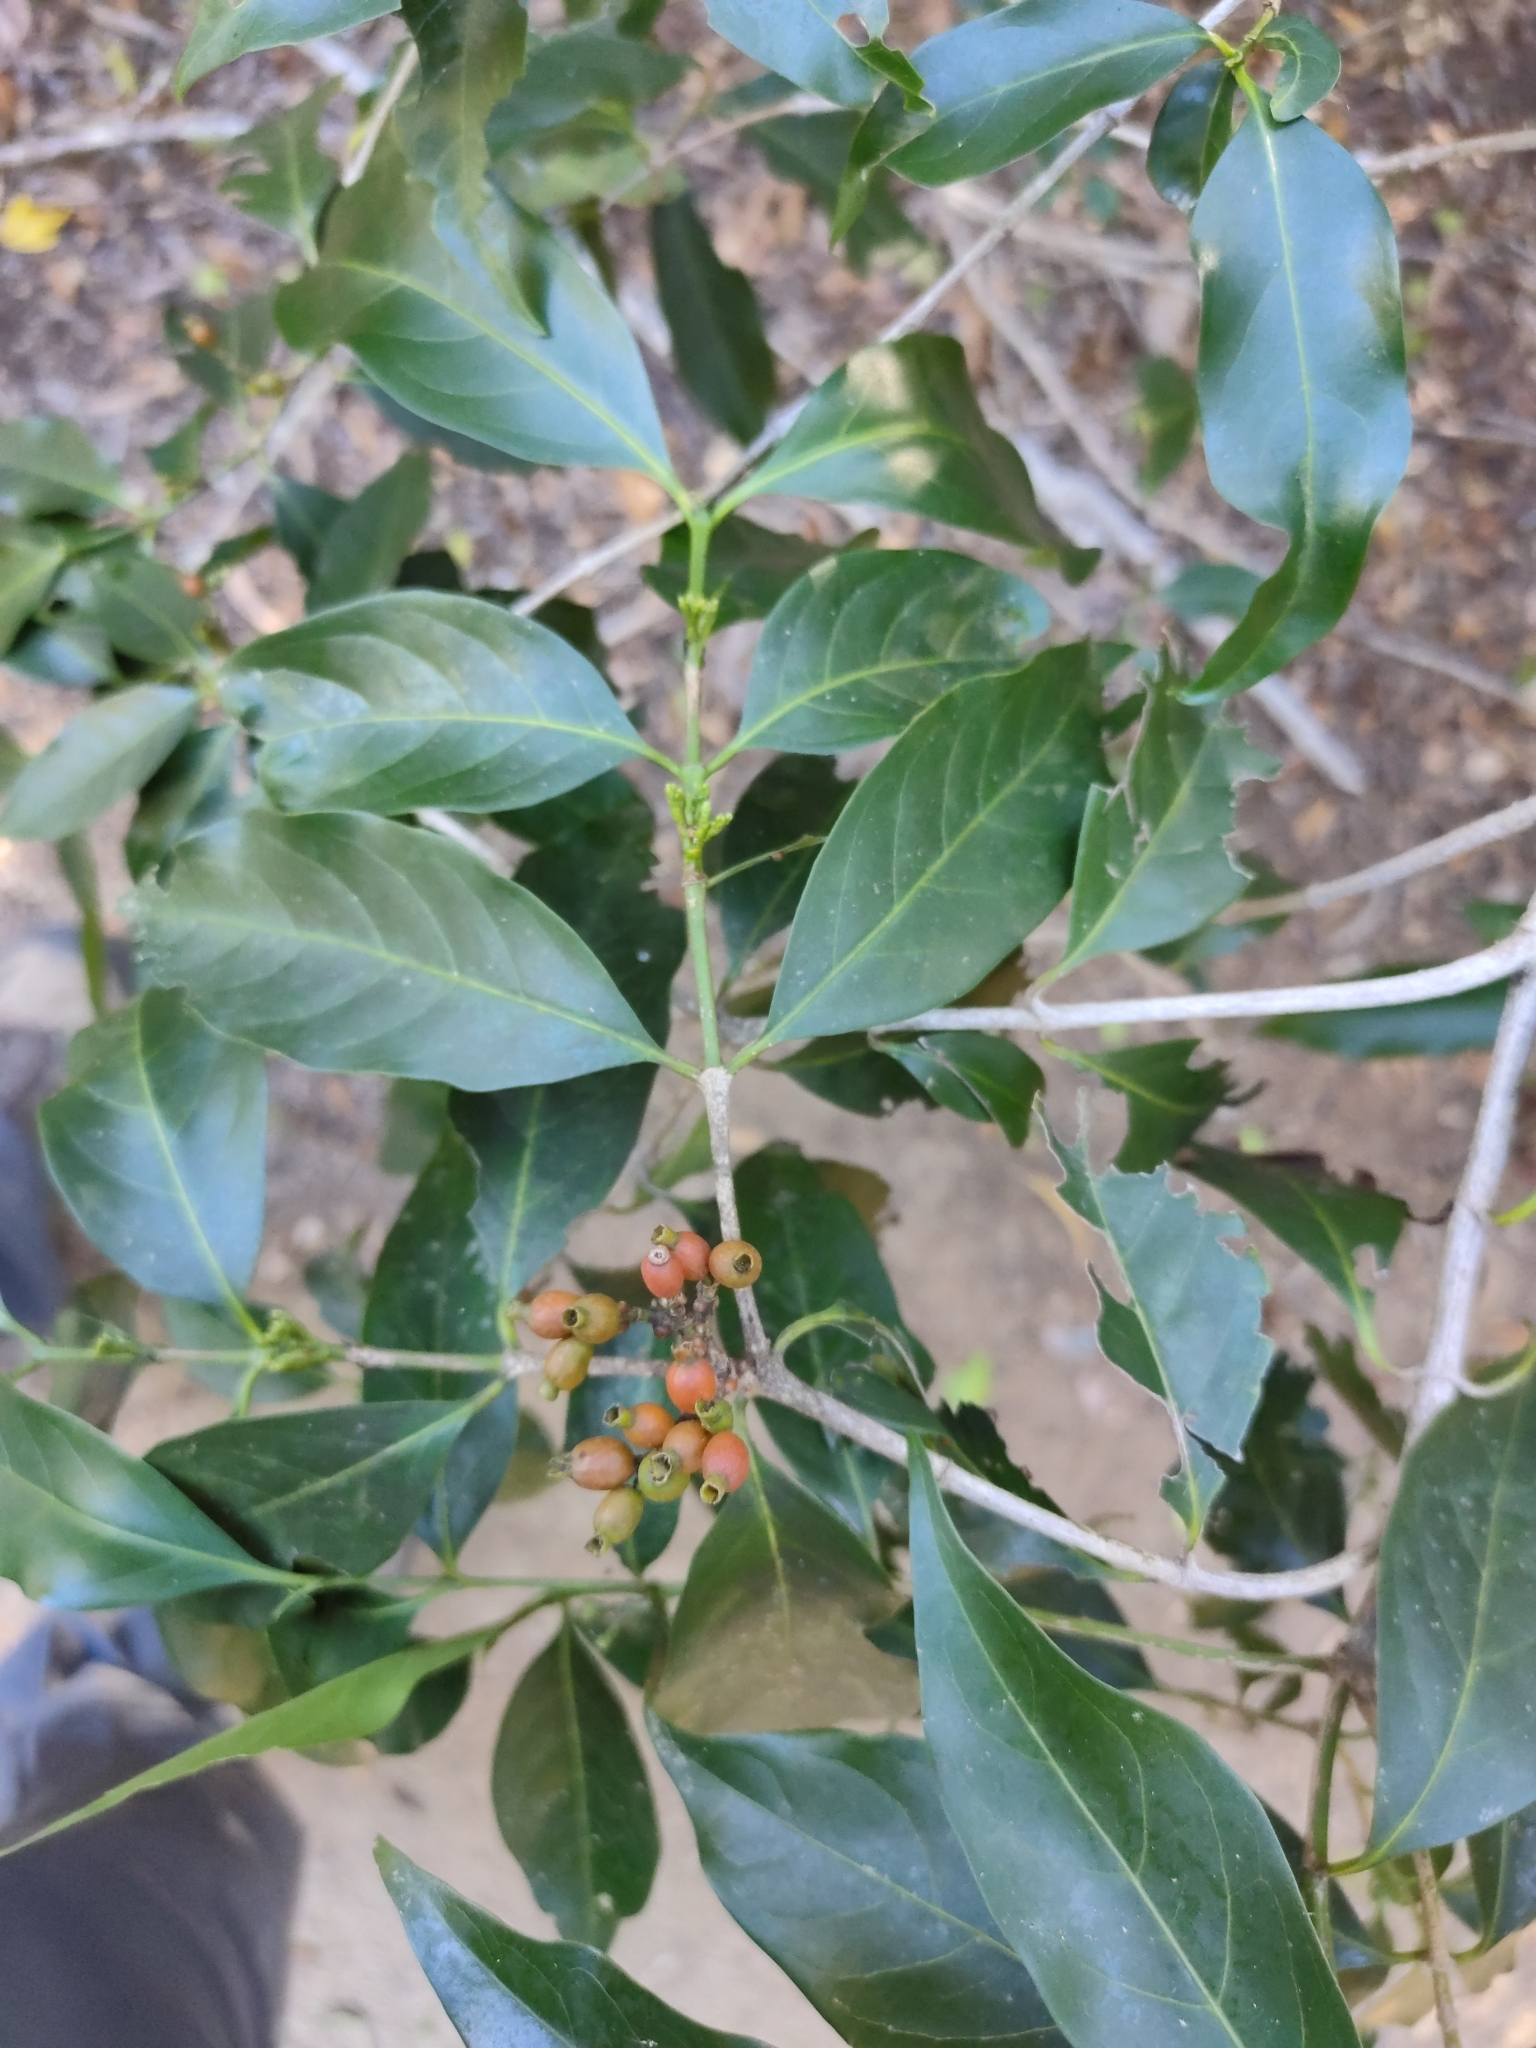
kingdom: Plantae
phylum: Tracheophyta
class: Magnoliopsida
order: Gentianales
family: Rubiaceae
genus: Aidia
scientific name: Aidia racemosa
